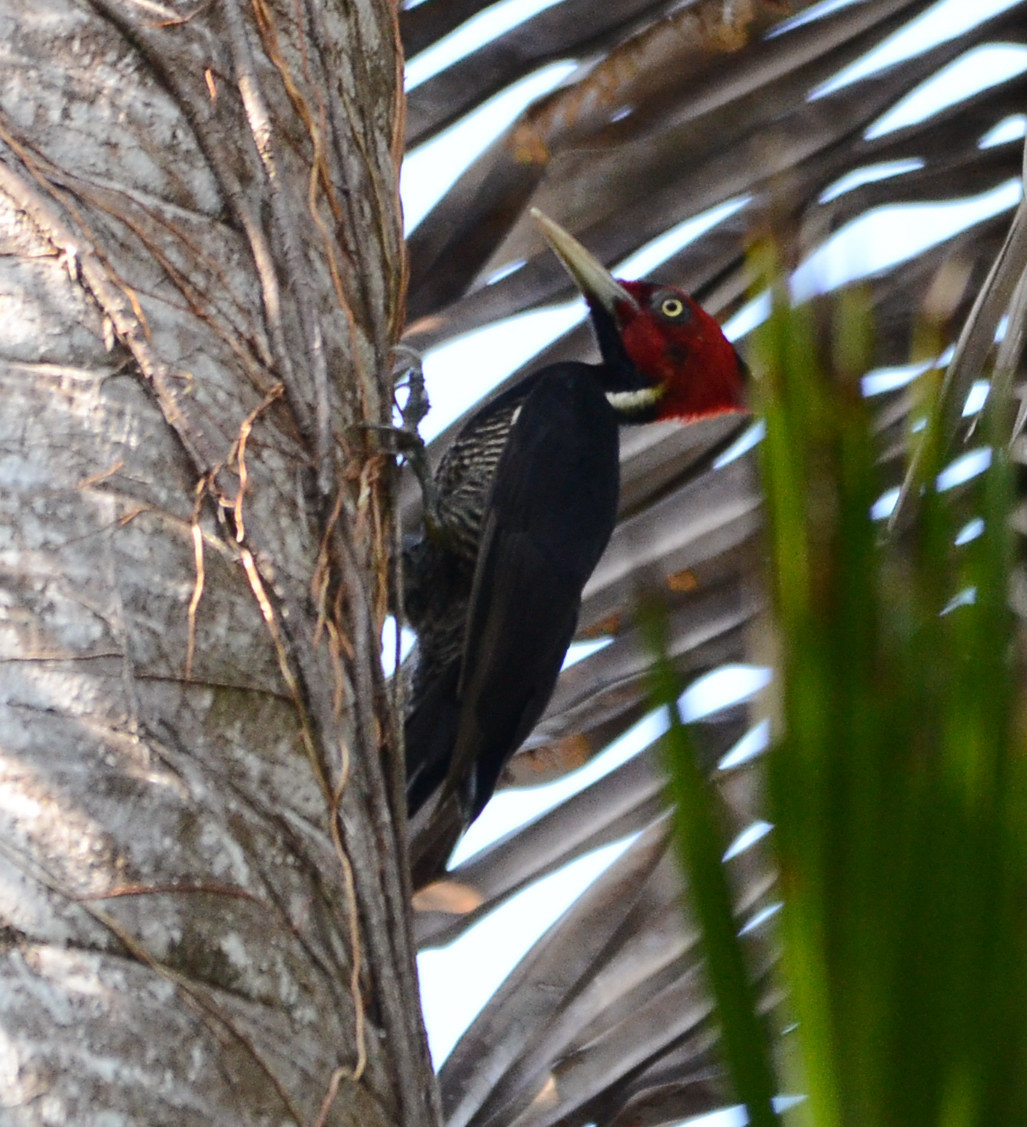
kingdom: Animalia
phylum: Chordata
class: Aves
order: Piciformes
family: Picidae
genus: Campephilus
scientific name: Campephilus guatemalensis
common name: Pale-billed woodpecker
